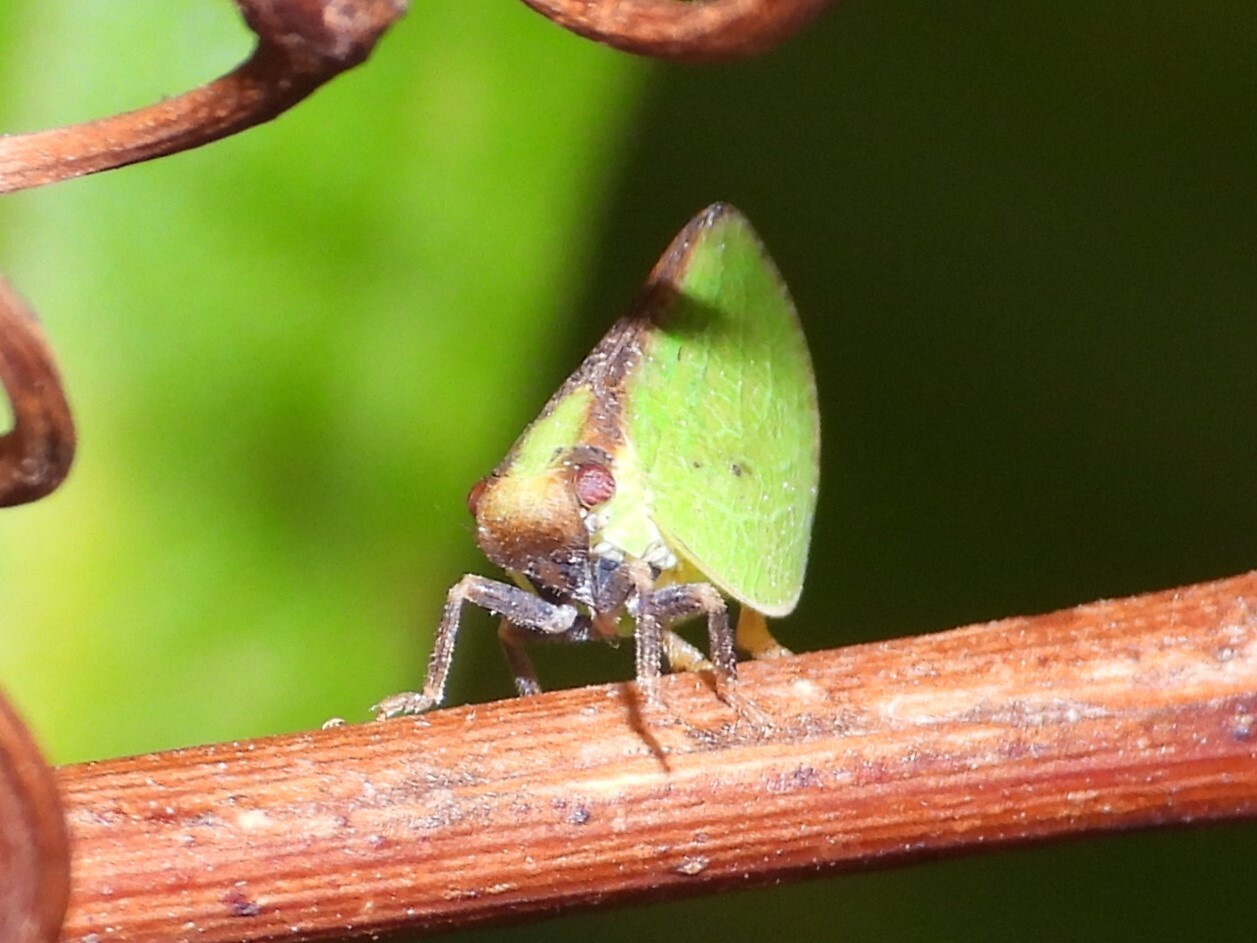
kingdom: Animalia
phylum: Arthropoda
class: Insecta
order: Hemiptera
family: Acanaloniidae
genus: Acanalonia
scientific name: Acanalonia bivittata
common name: Two-striped planthopper
